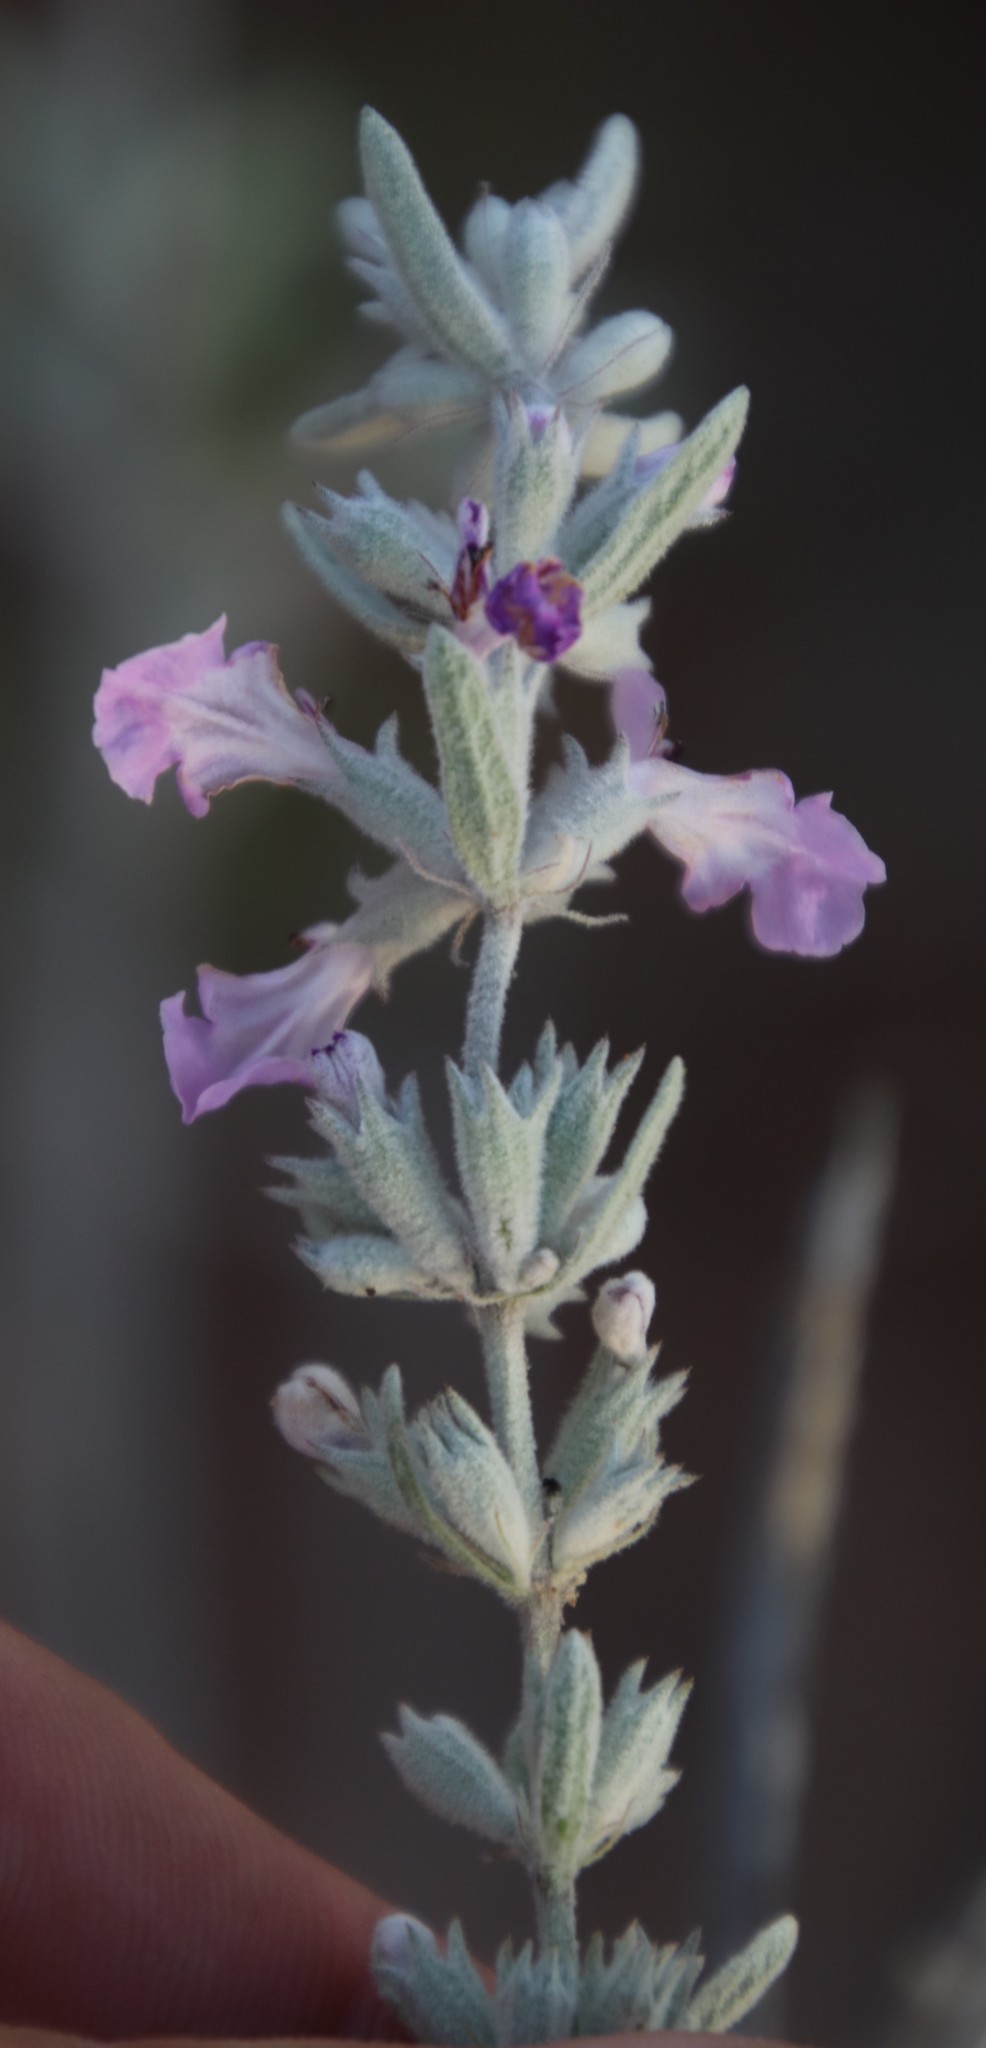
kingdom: Plantae
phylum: Tracheophyta
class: Magnoliopsida
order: Lamiales
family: Lamiaceae
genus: Stachys
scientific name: Stachys rugosa
